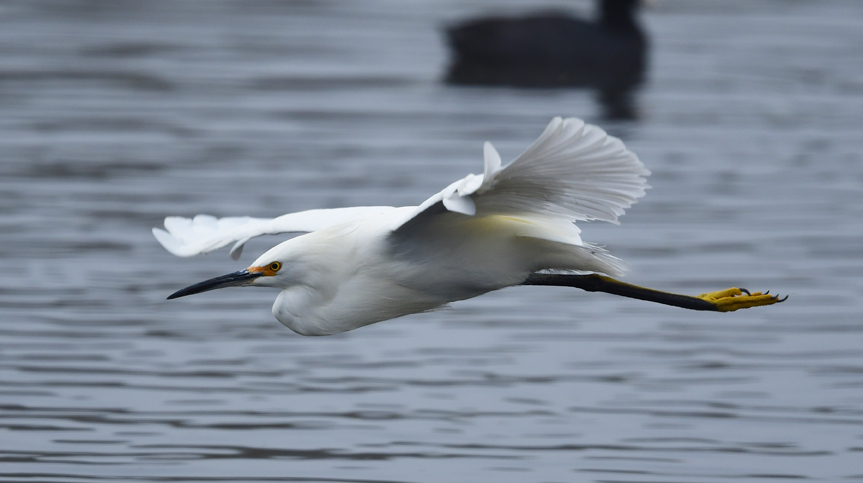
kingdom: Animalia
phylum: Chordata
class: Aves
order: Pelecaniformes
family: Ardeidae
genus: Egretta
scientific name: Egretta thula
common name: Snowy egret
